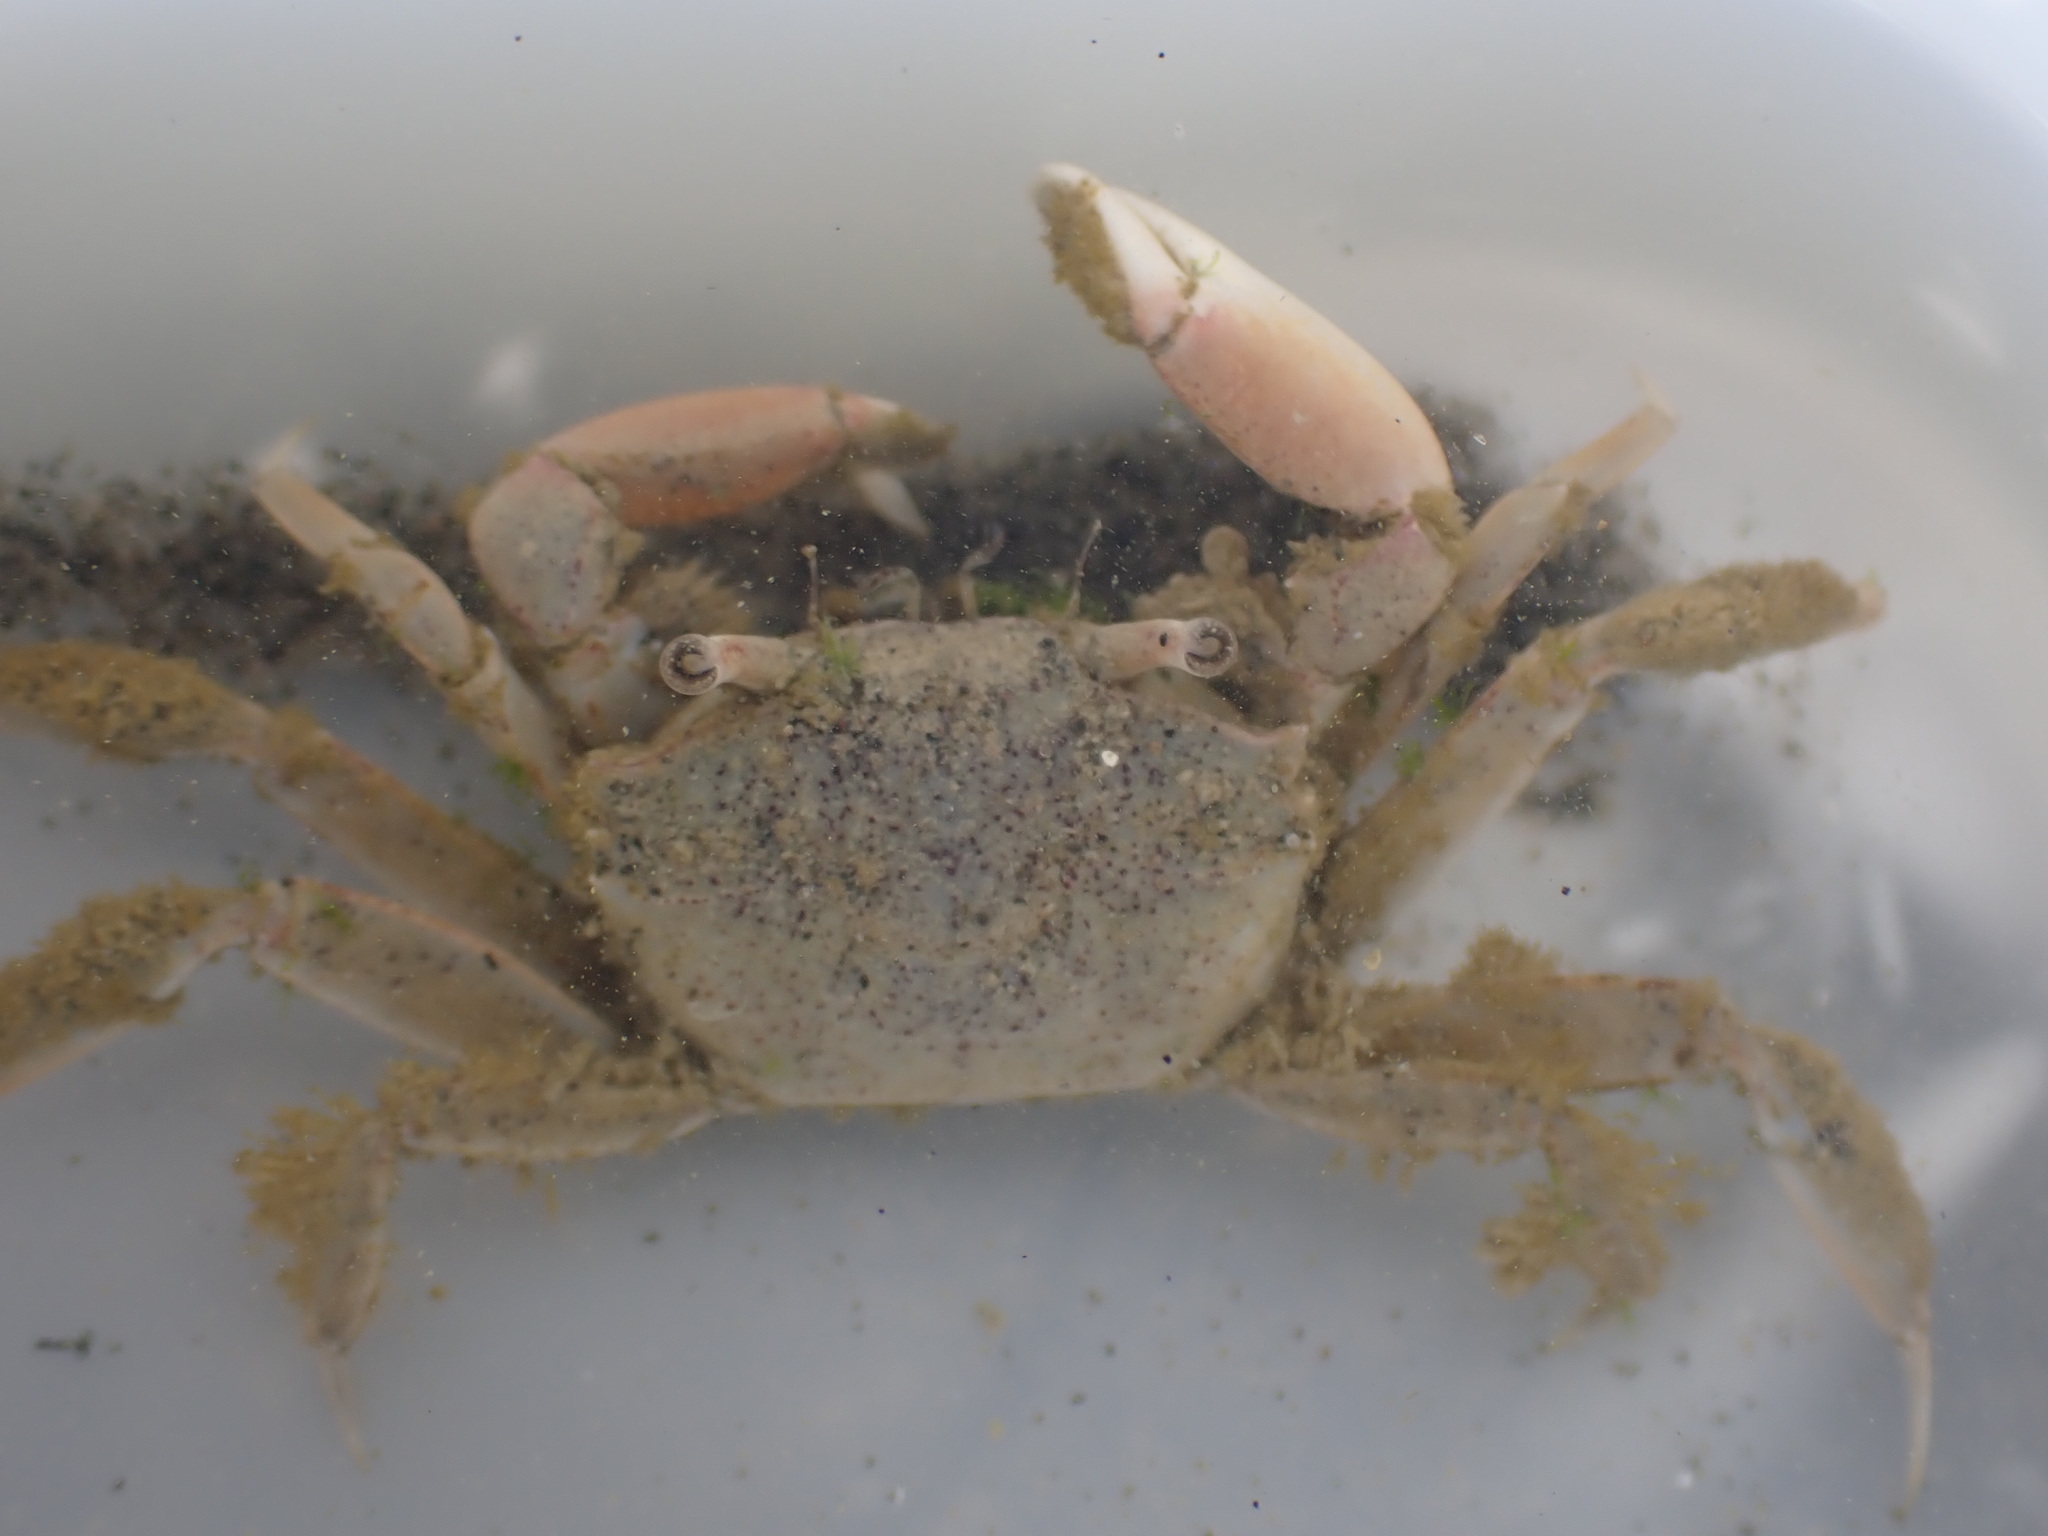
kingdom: Animalia
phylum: Arthropoda
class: Malacostraca
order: Decapoda
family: Macrophthalmidae
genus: Hemiplax
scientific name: Hemiplax hirtipes
